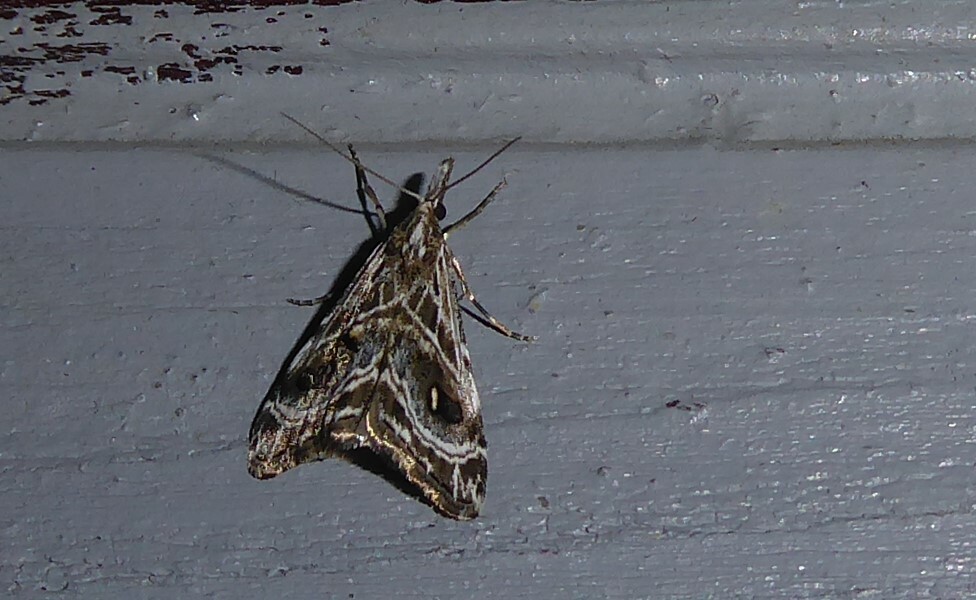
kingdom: Animalia
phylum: Arthropoda
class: Insecta
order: Lepidoptera
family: Crambidae
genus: Gadira
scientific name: Gadira acerella
